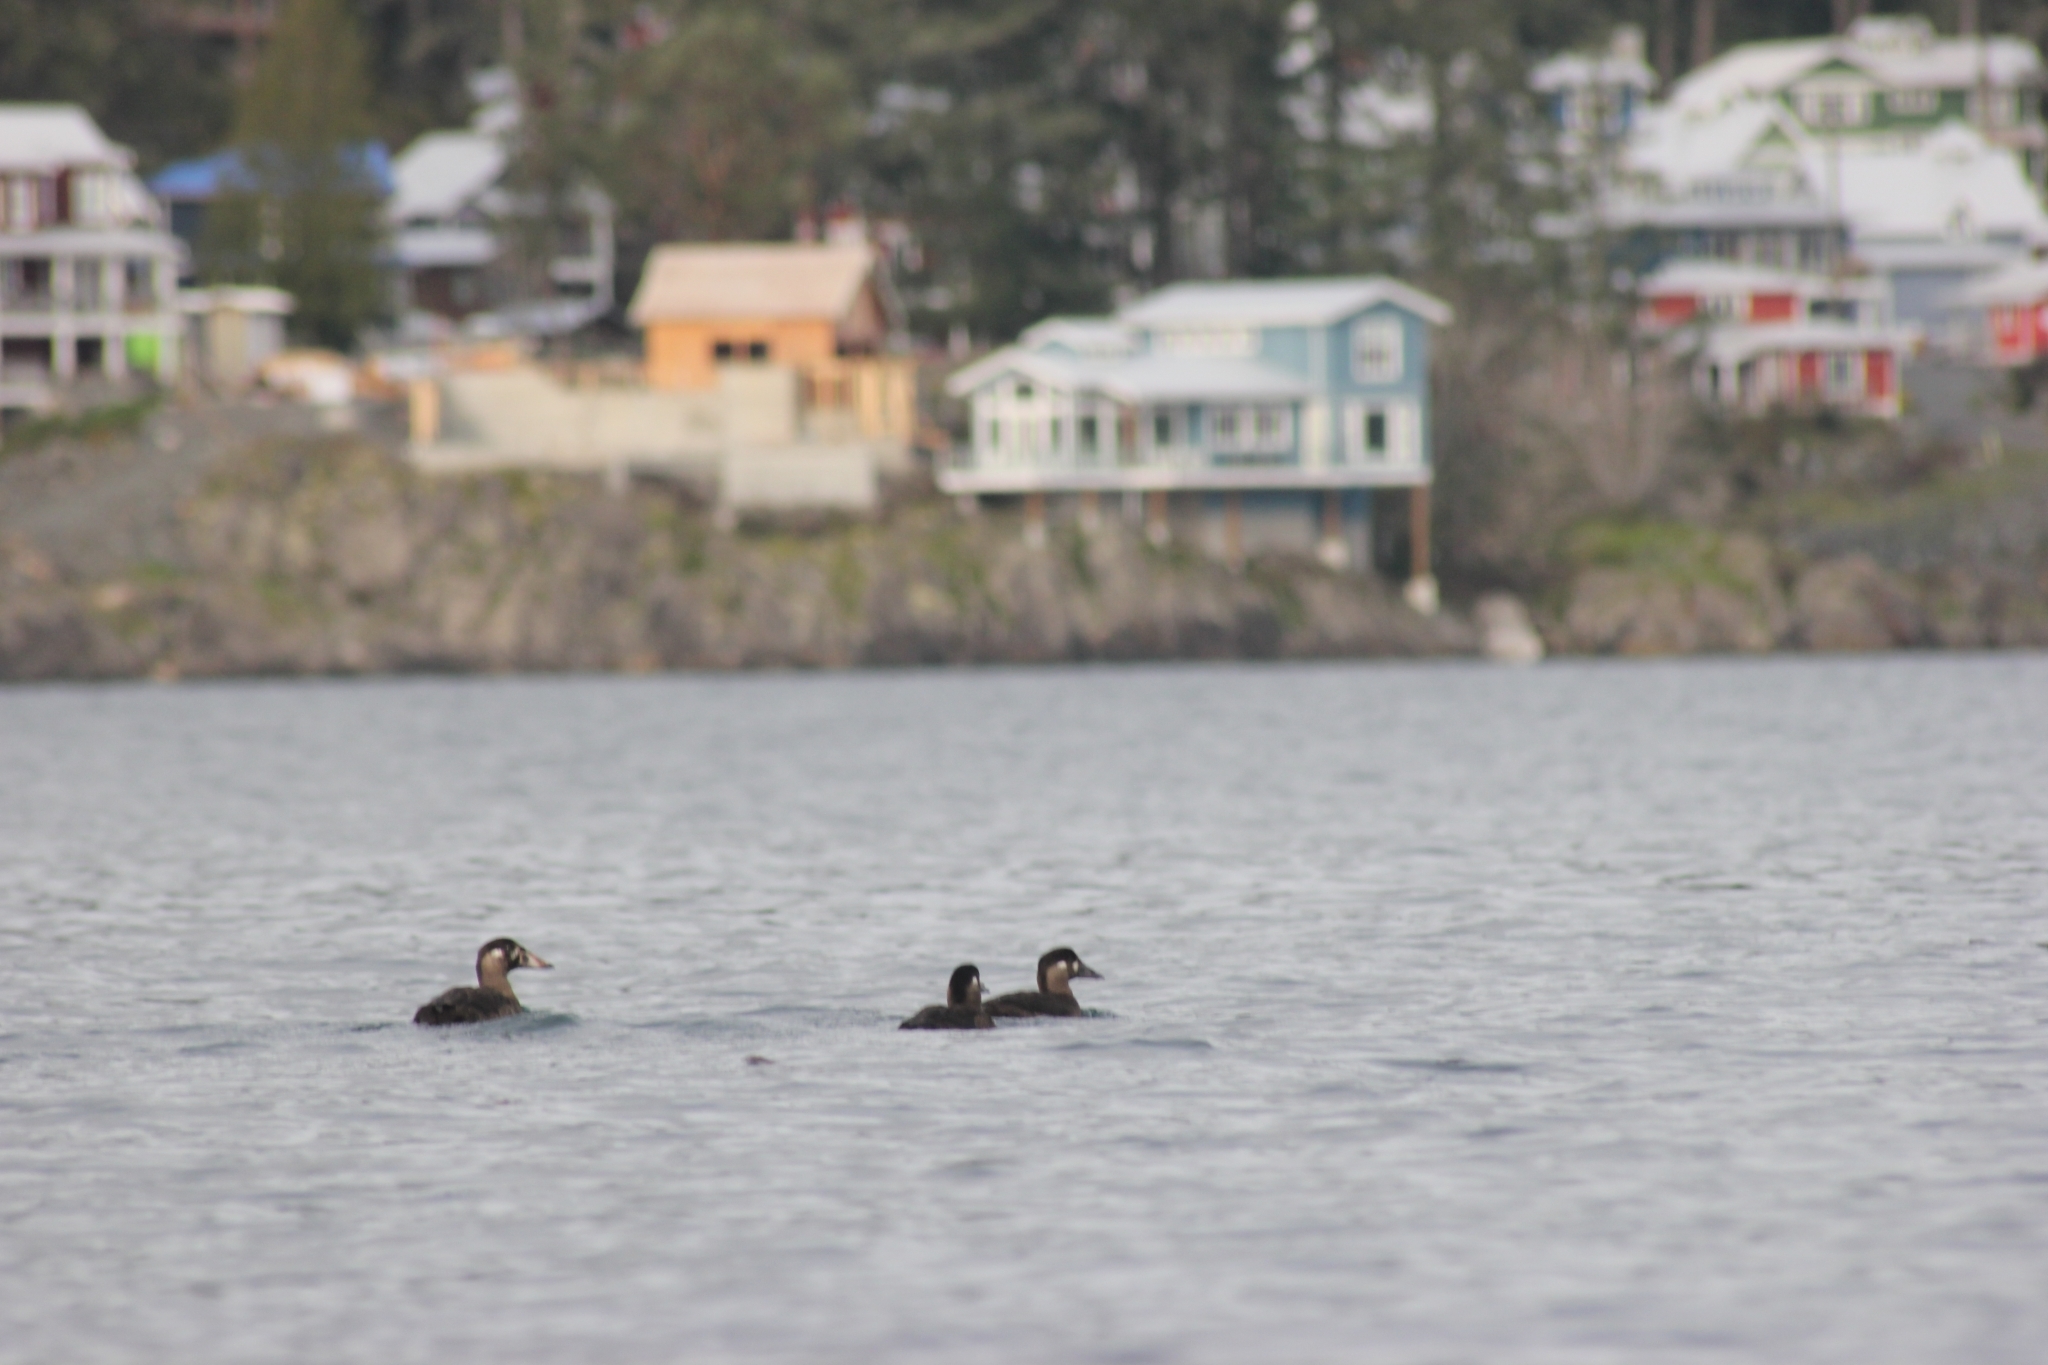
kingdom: Animalia
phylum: Chordata
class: Aves
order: Anseriformes
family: Anatidae
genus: Melanitta
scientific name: Melanitta perspicillata
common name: Surf scoter
